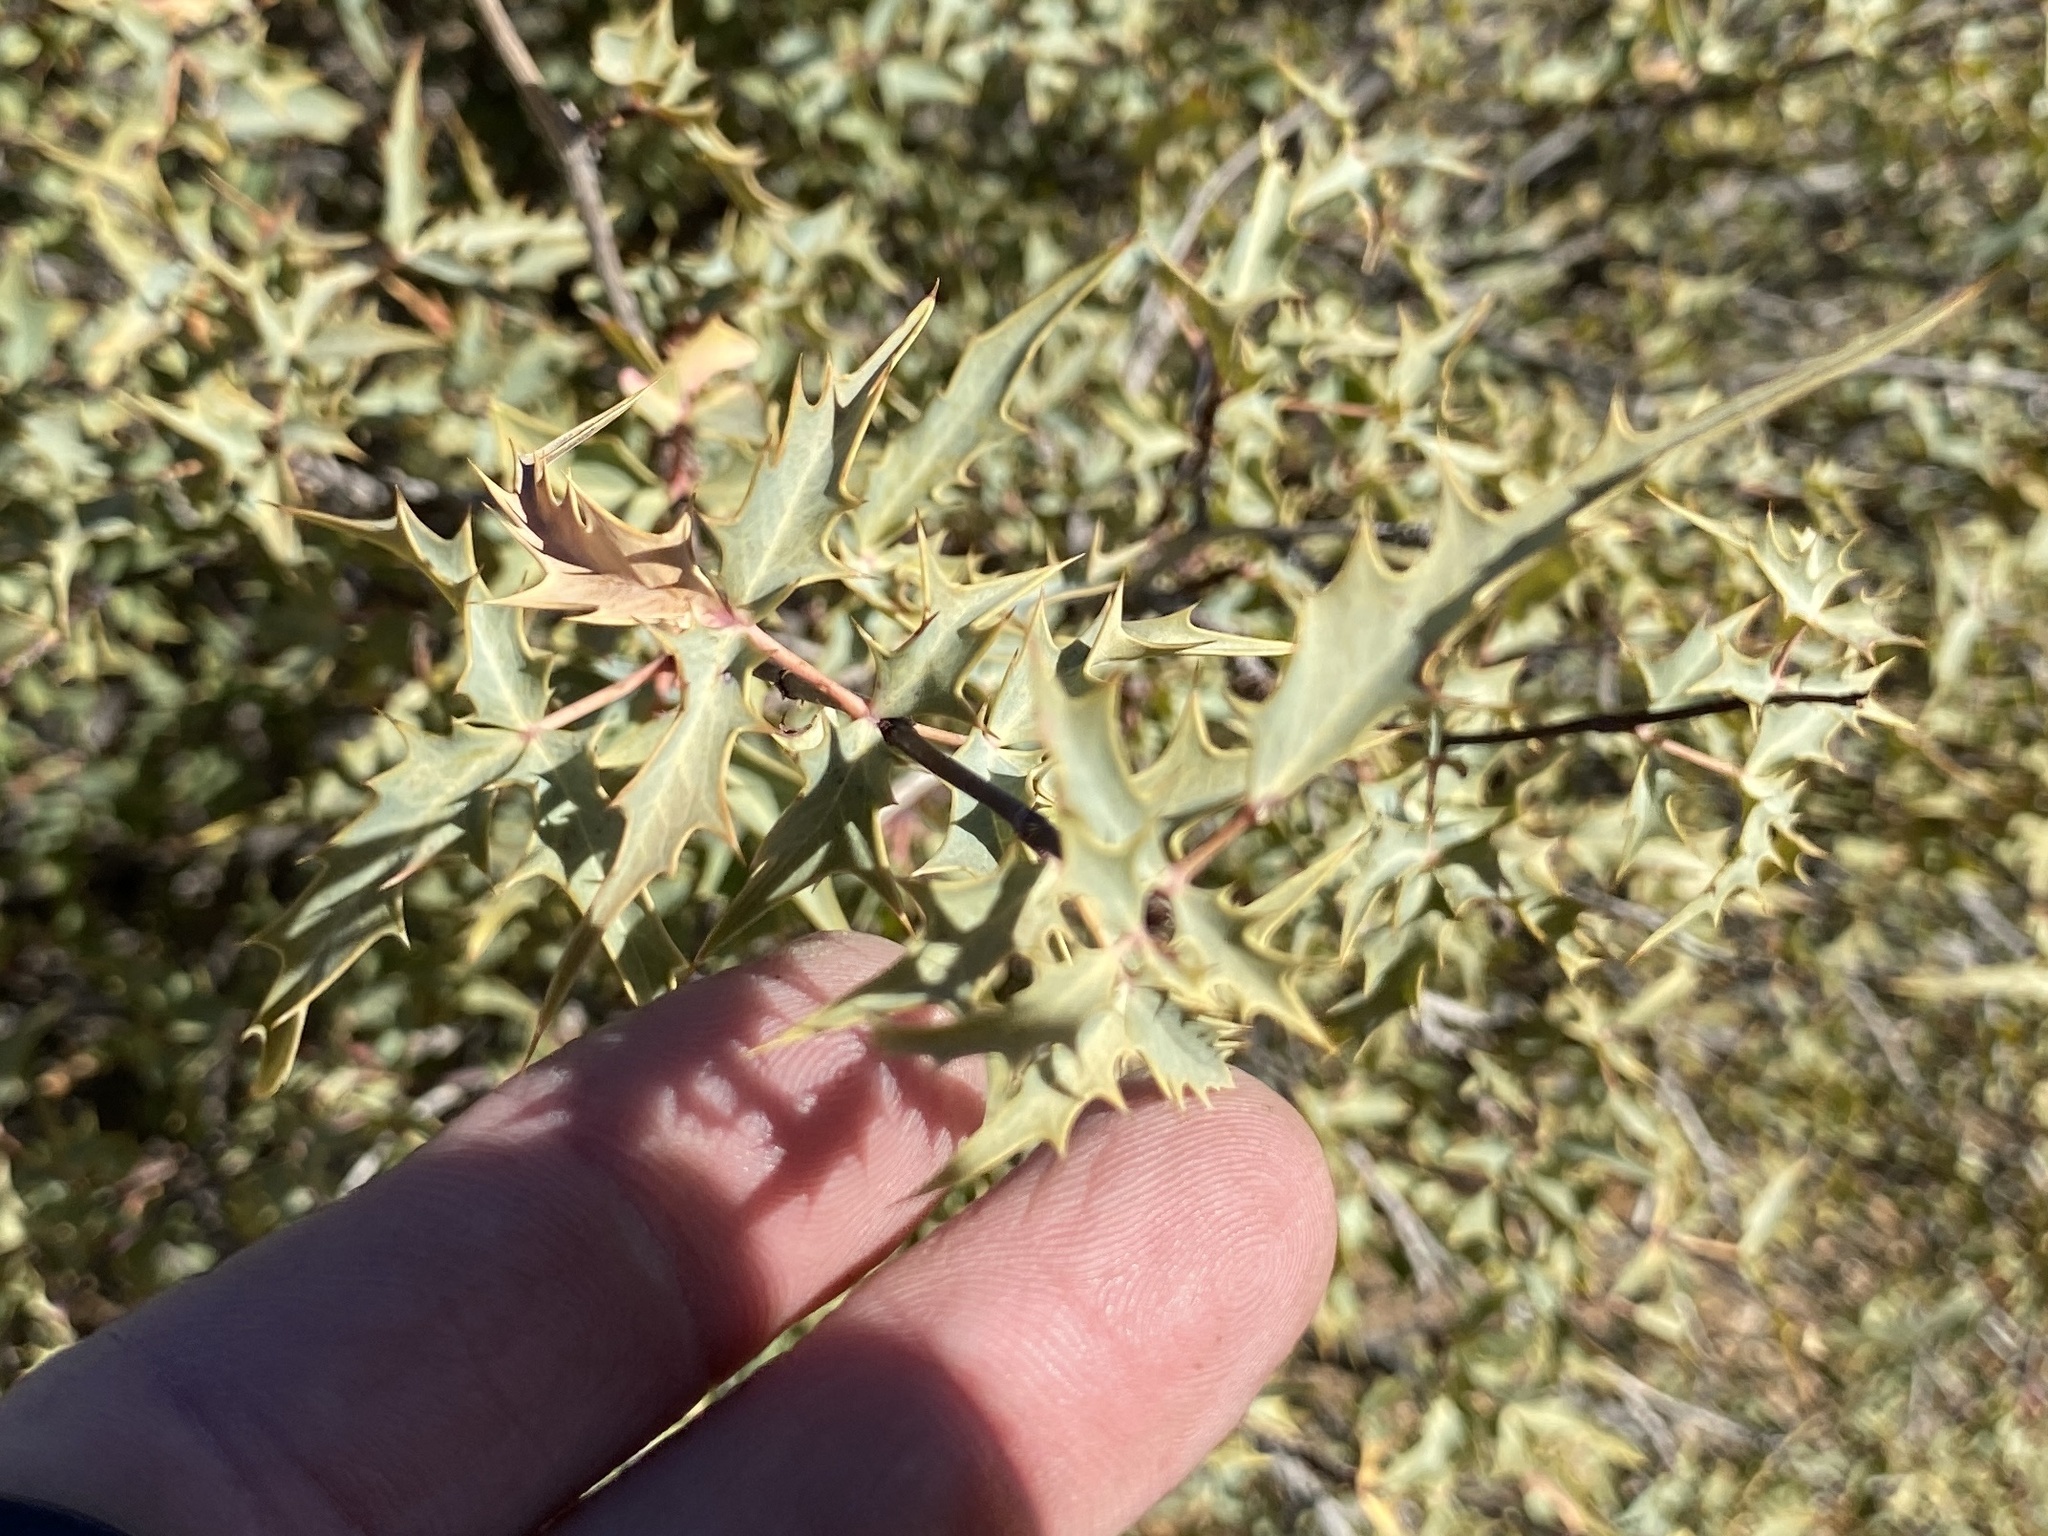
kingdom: Plantae
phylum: Tracheophyta
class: Magnoliopsida
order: Ranunculales
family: Berberidaceae
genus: Alloberberis
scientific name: Alloberberis fremontii
